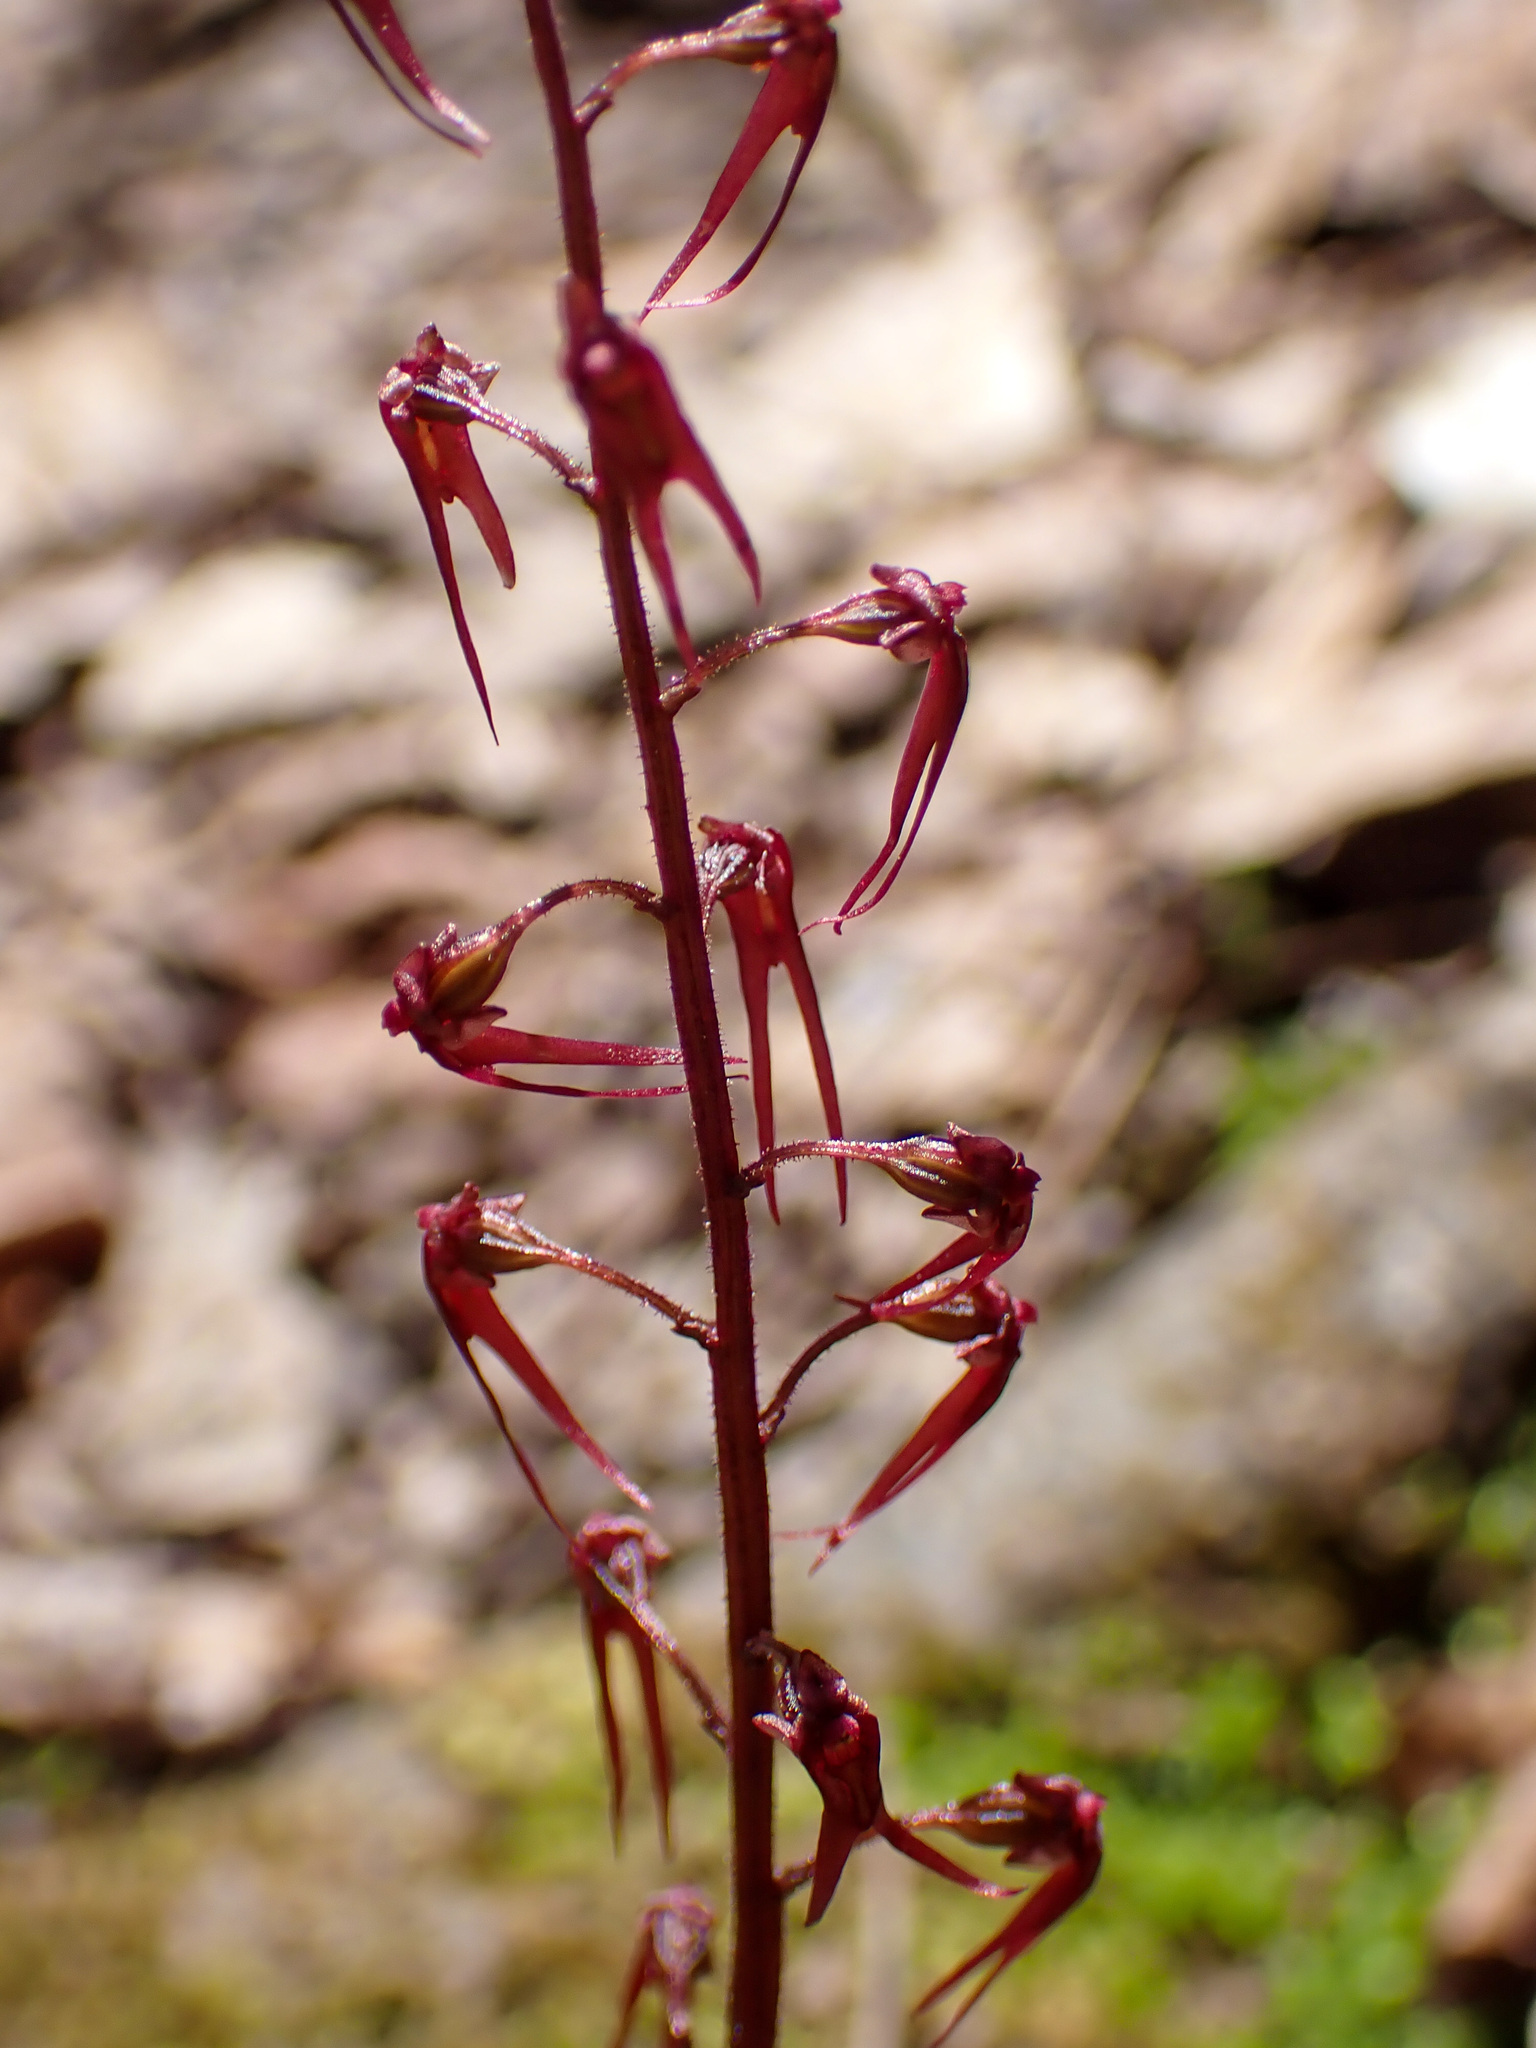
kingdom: Plantae
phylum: Tracheophyta
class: Liliopsida
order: Asparagales
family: Orchidaceae
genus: Neottia
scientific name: Neottia bifolia
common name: Southern twayblade
